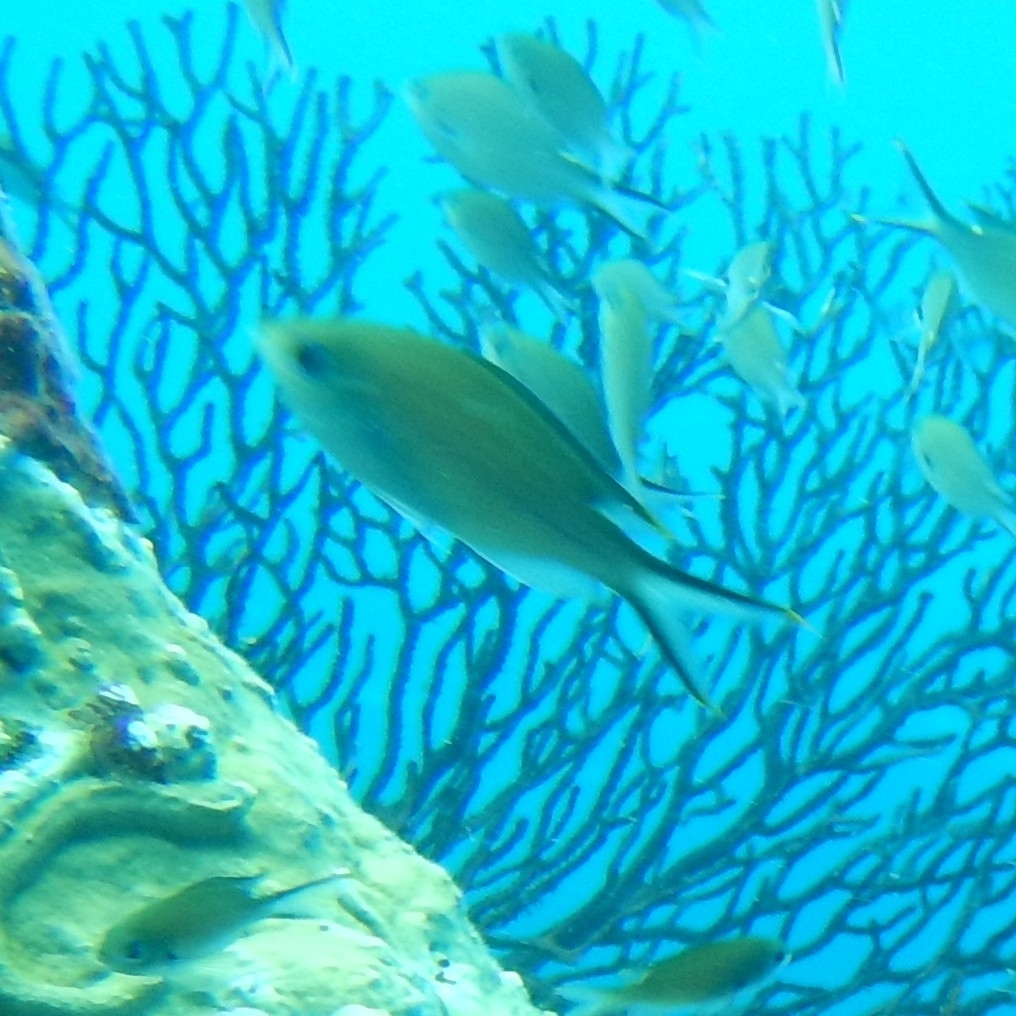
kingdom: Animalia
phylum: Chordata
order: Perciformes
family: Pomacentridae
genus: Chromis
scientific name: Chromis multilineata
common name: Brown chromis
